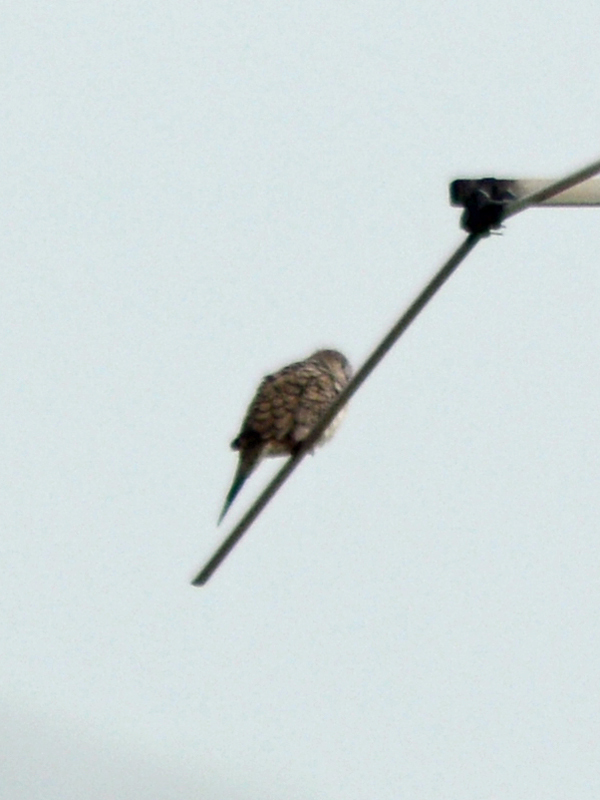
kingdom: Animalia
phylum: Chordata
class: Aves
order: Columbiformes
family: Columbidae
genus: Columbina
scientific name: Columbina inca
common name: Inca dove
